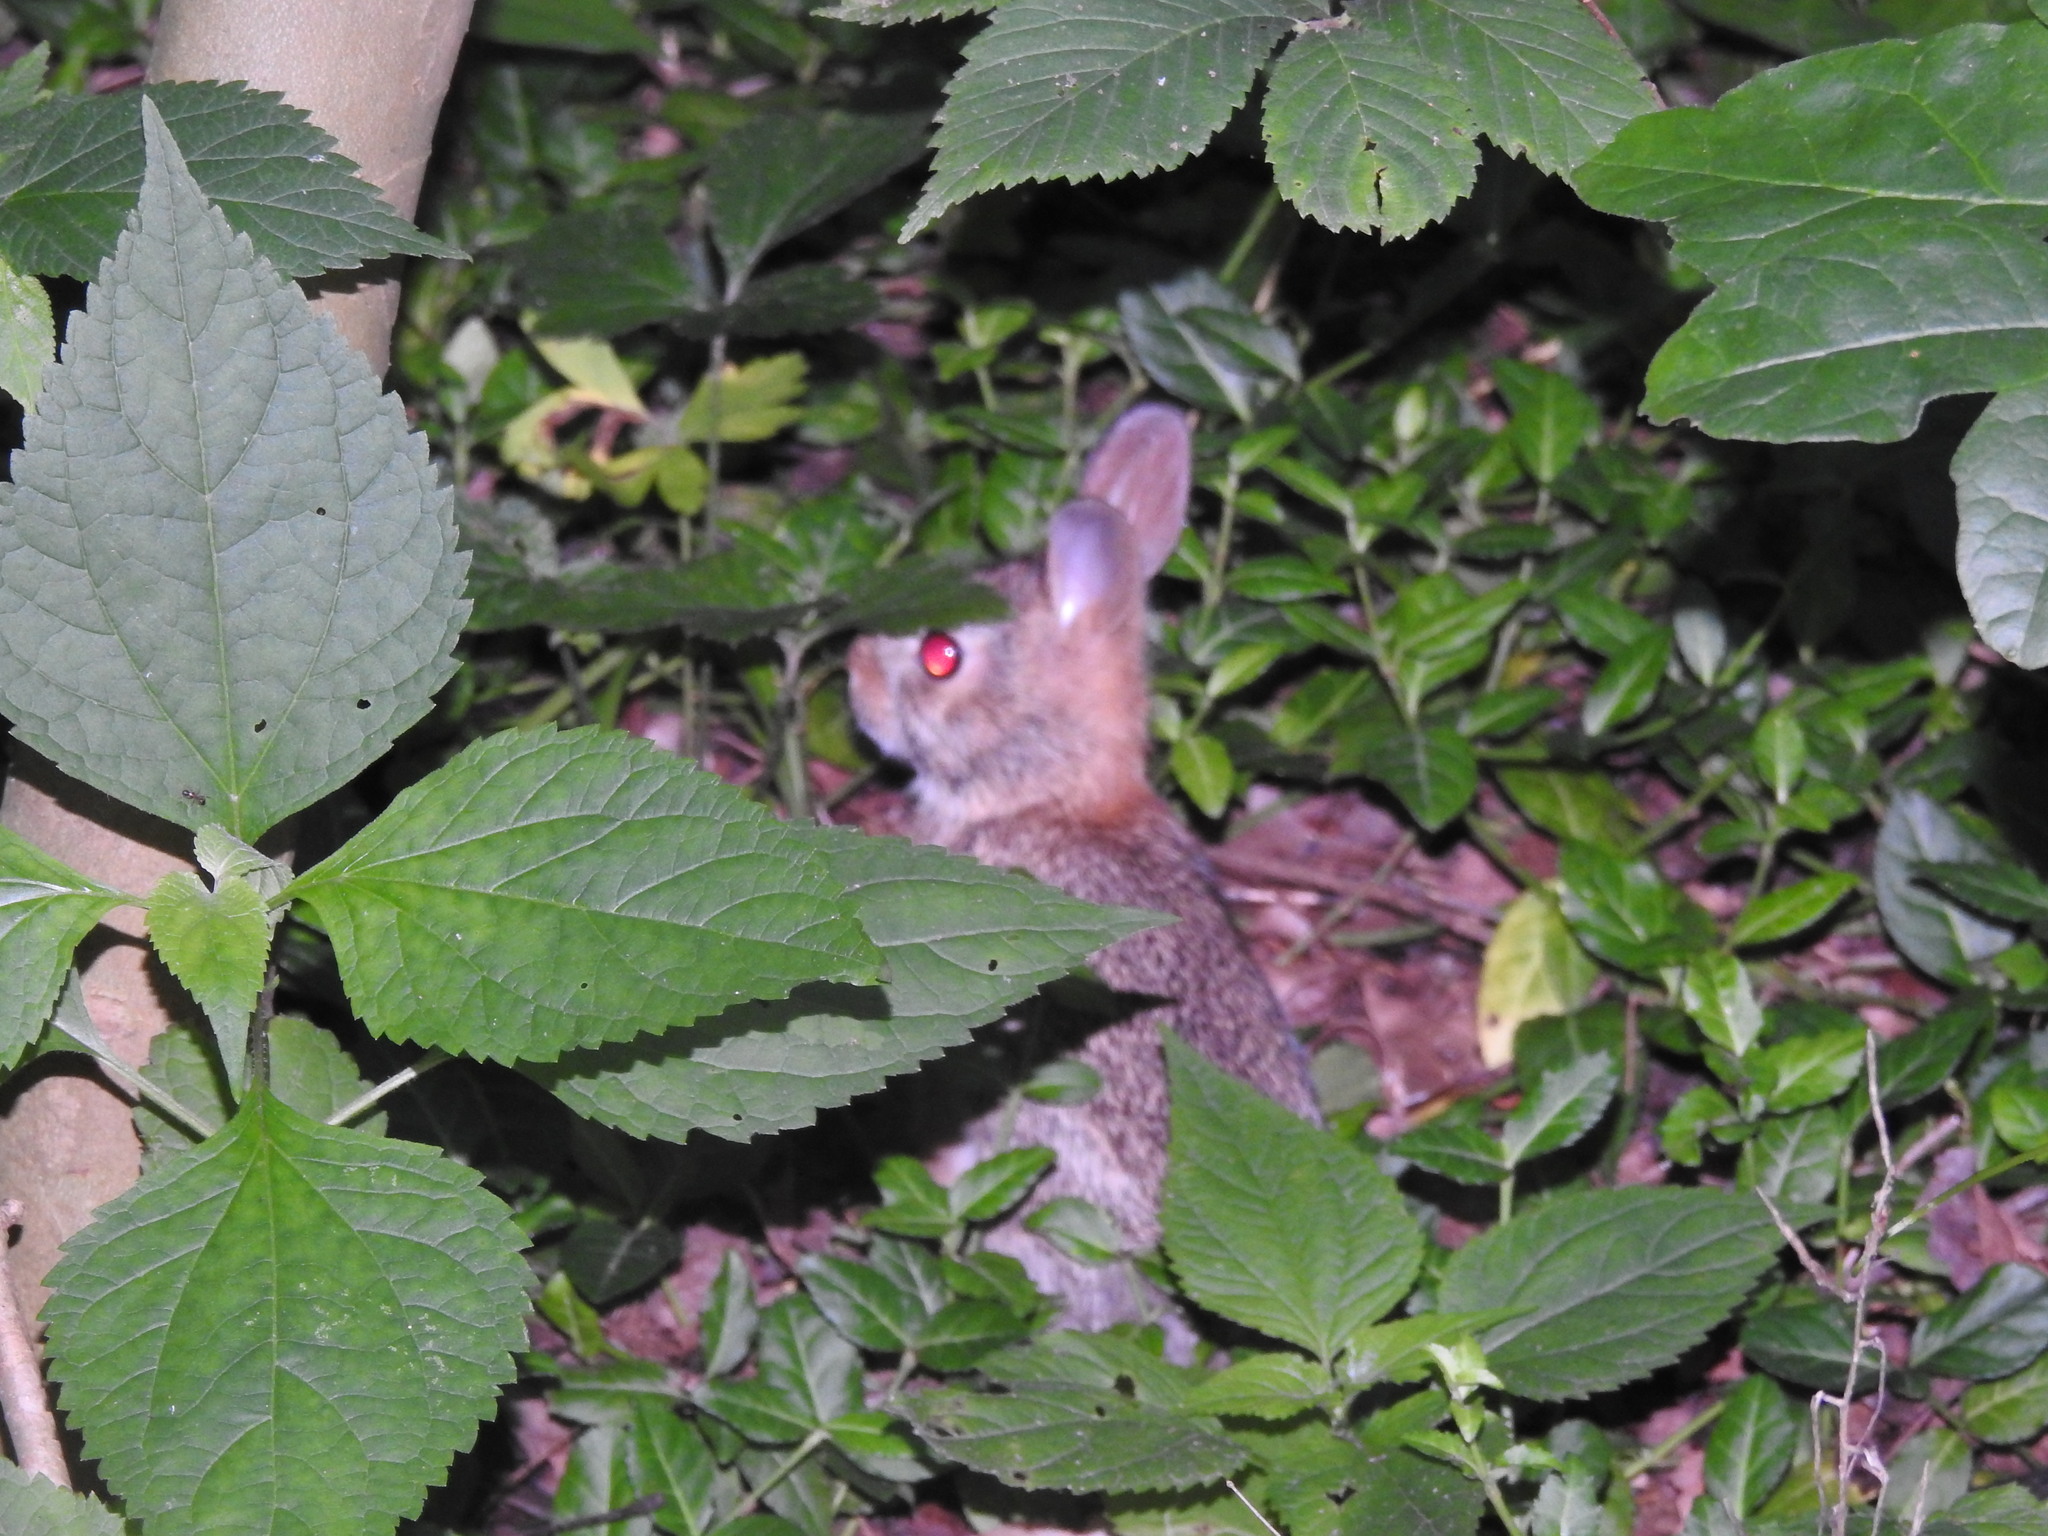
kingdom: Animalia
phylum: Chordata
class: Mammalia
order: Lagomorpha
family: Leporidae
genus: Sylvilagus
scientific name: Sylvilagus floridanus
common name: Eastern cottontail
